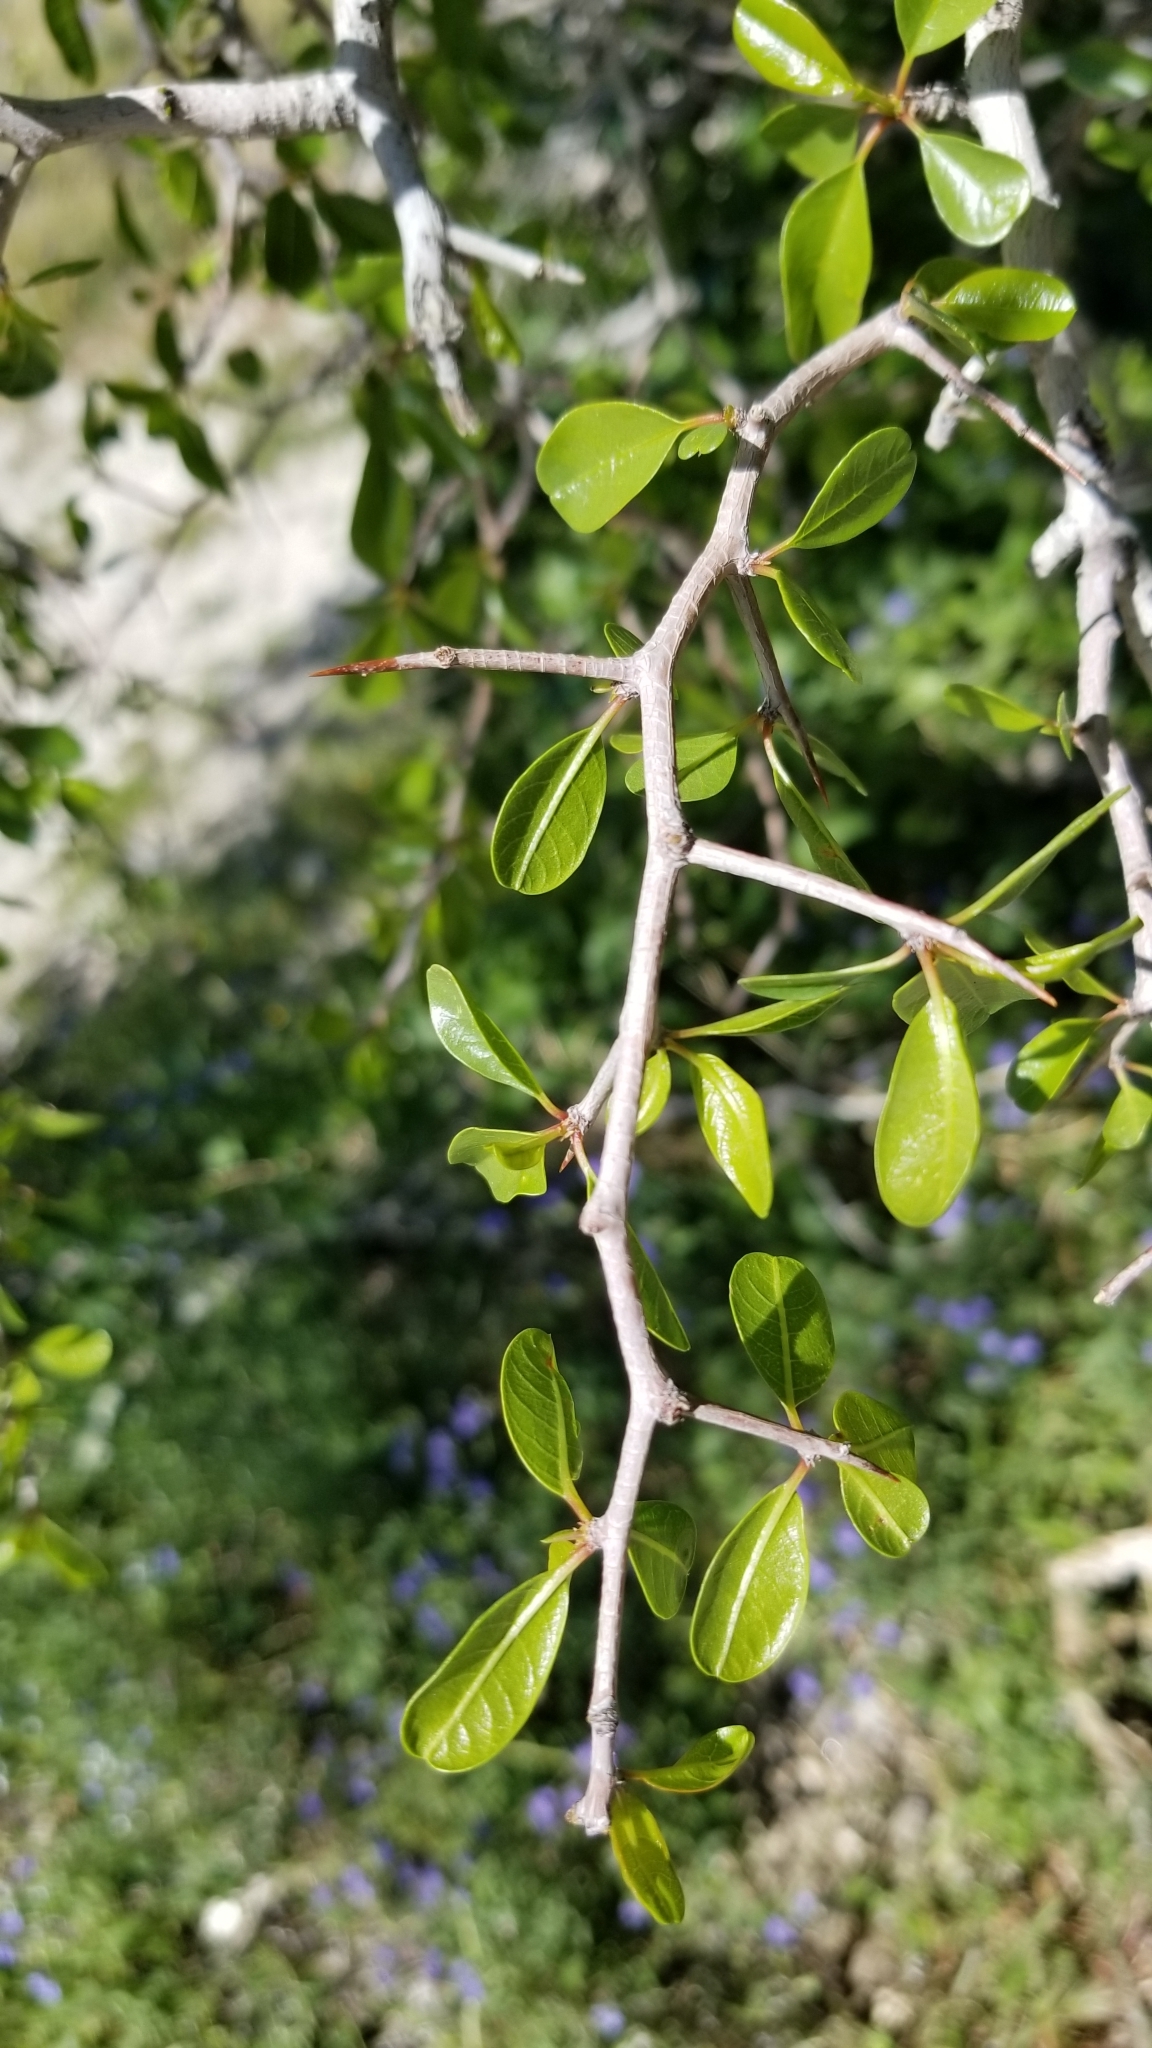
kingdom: Plantae
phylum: Tracheophyta
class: Magnoliopsida
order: Rosales
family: Rhamnaceae
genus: Pseudoziziphus
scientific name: Pseudoziziphus parryi
